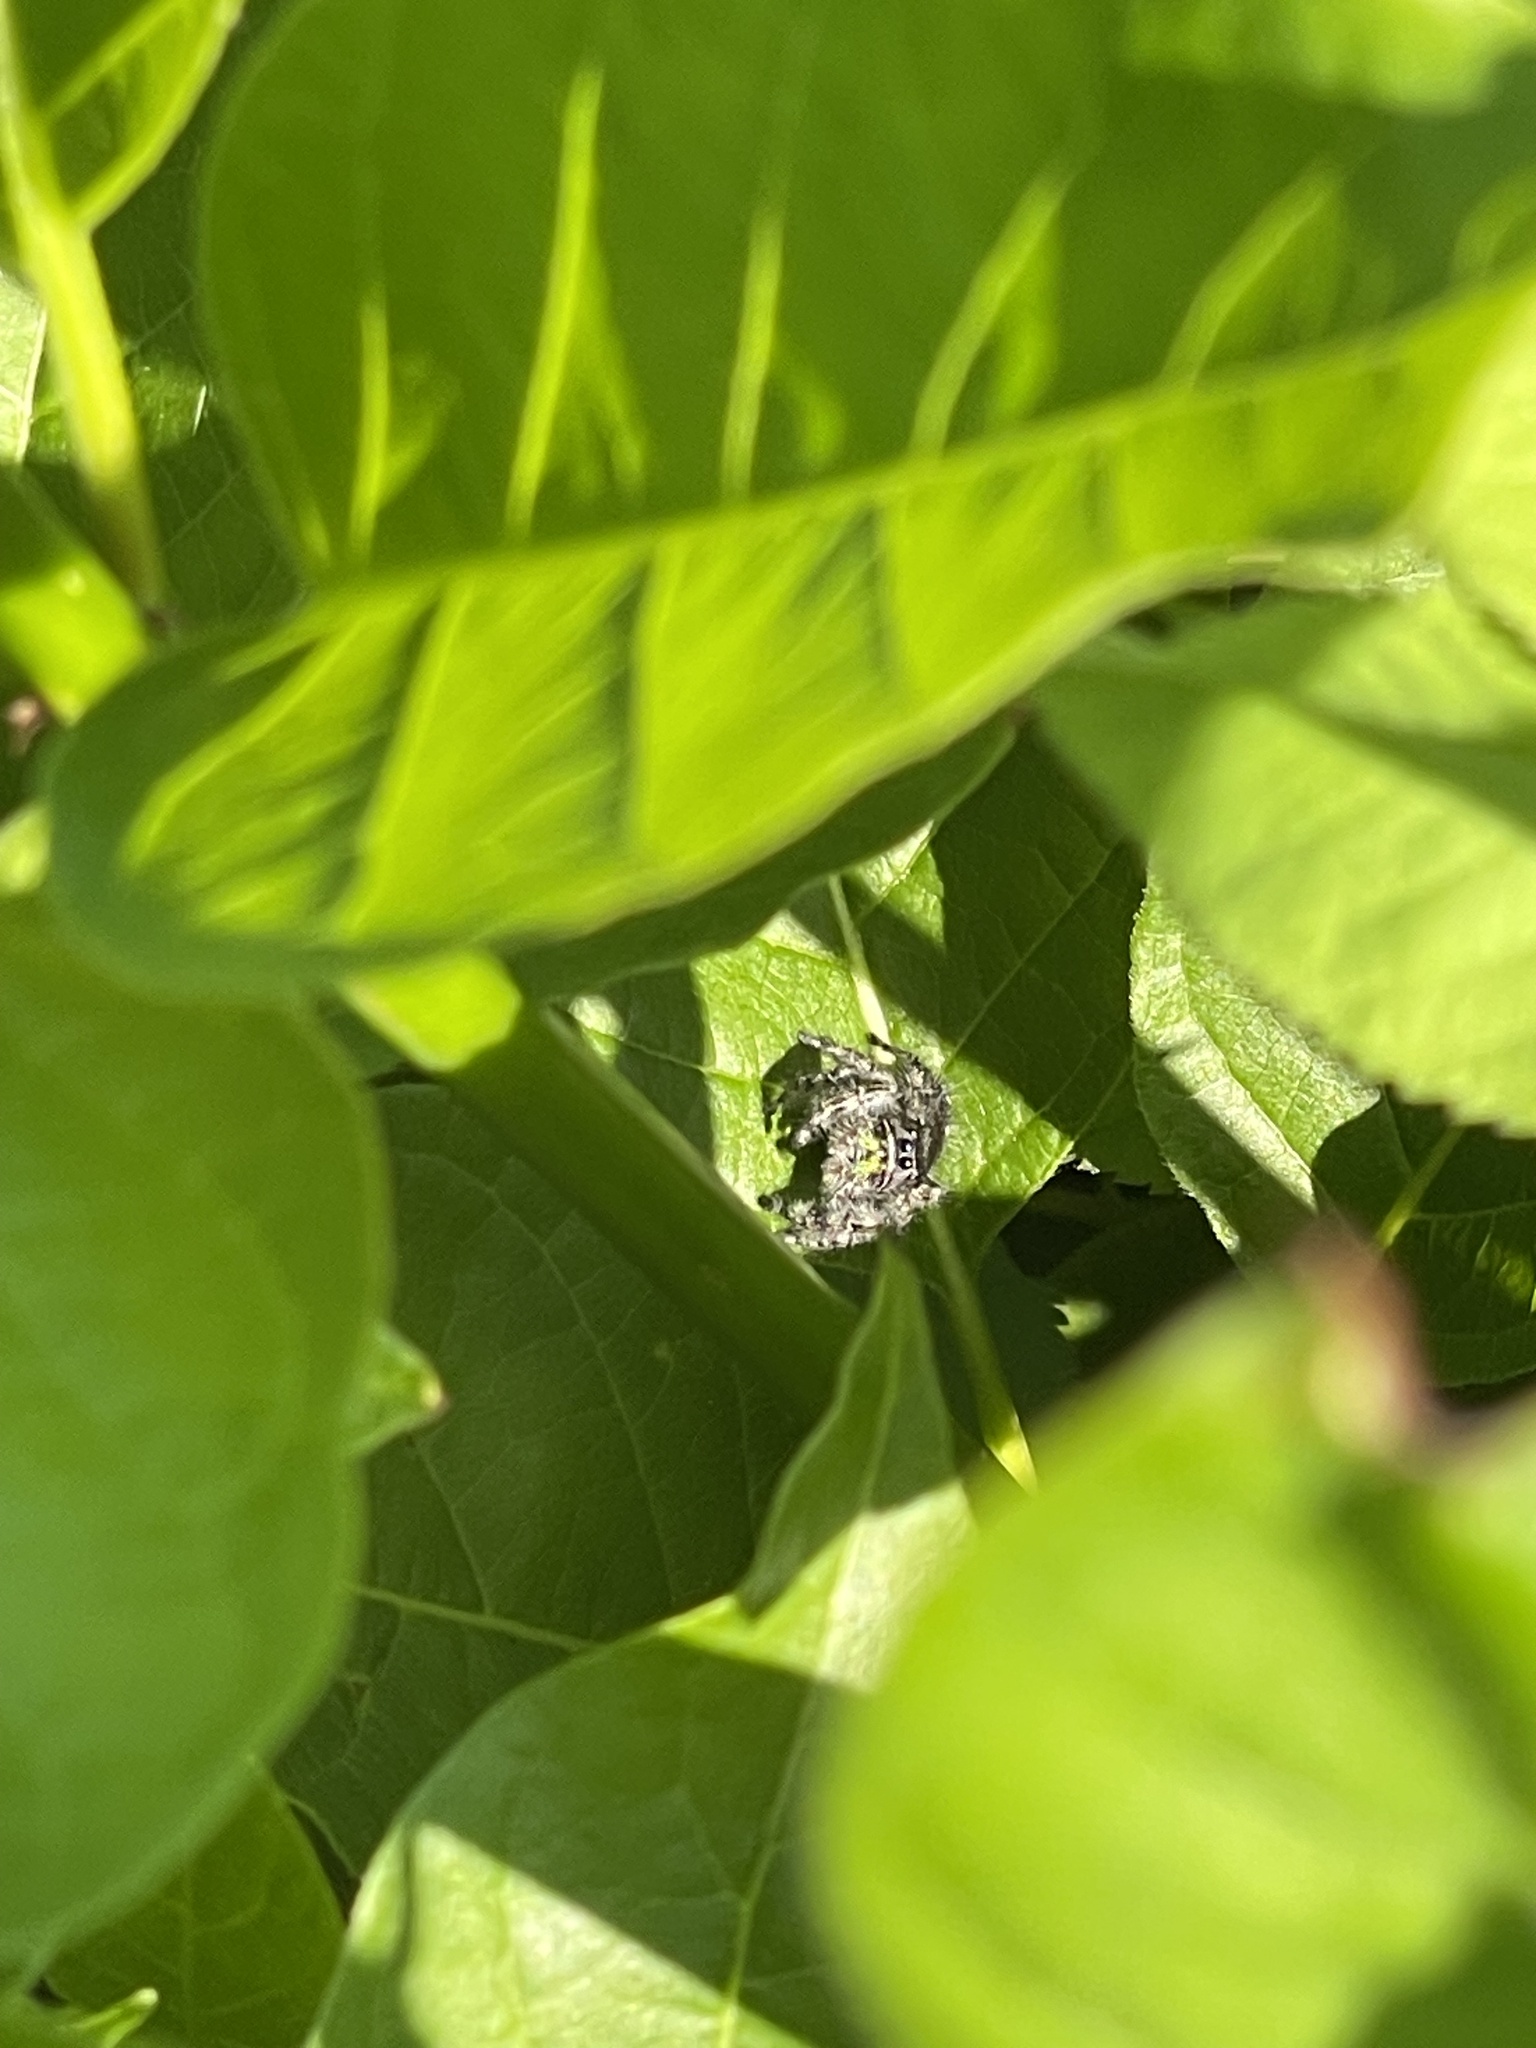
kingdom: Animalia
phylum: Arthropoda
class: Arachnida
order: Araneae
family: Salticidae
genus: Phidippus
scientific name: Phidippus audax
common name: Bold jumper
